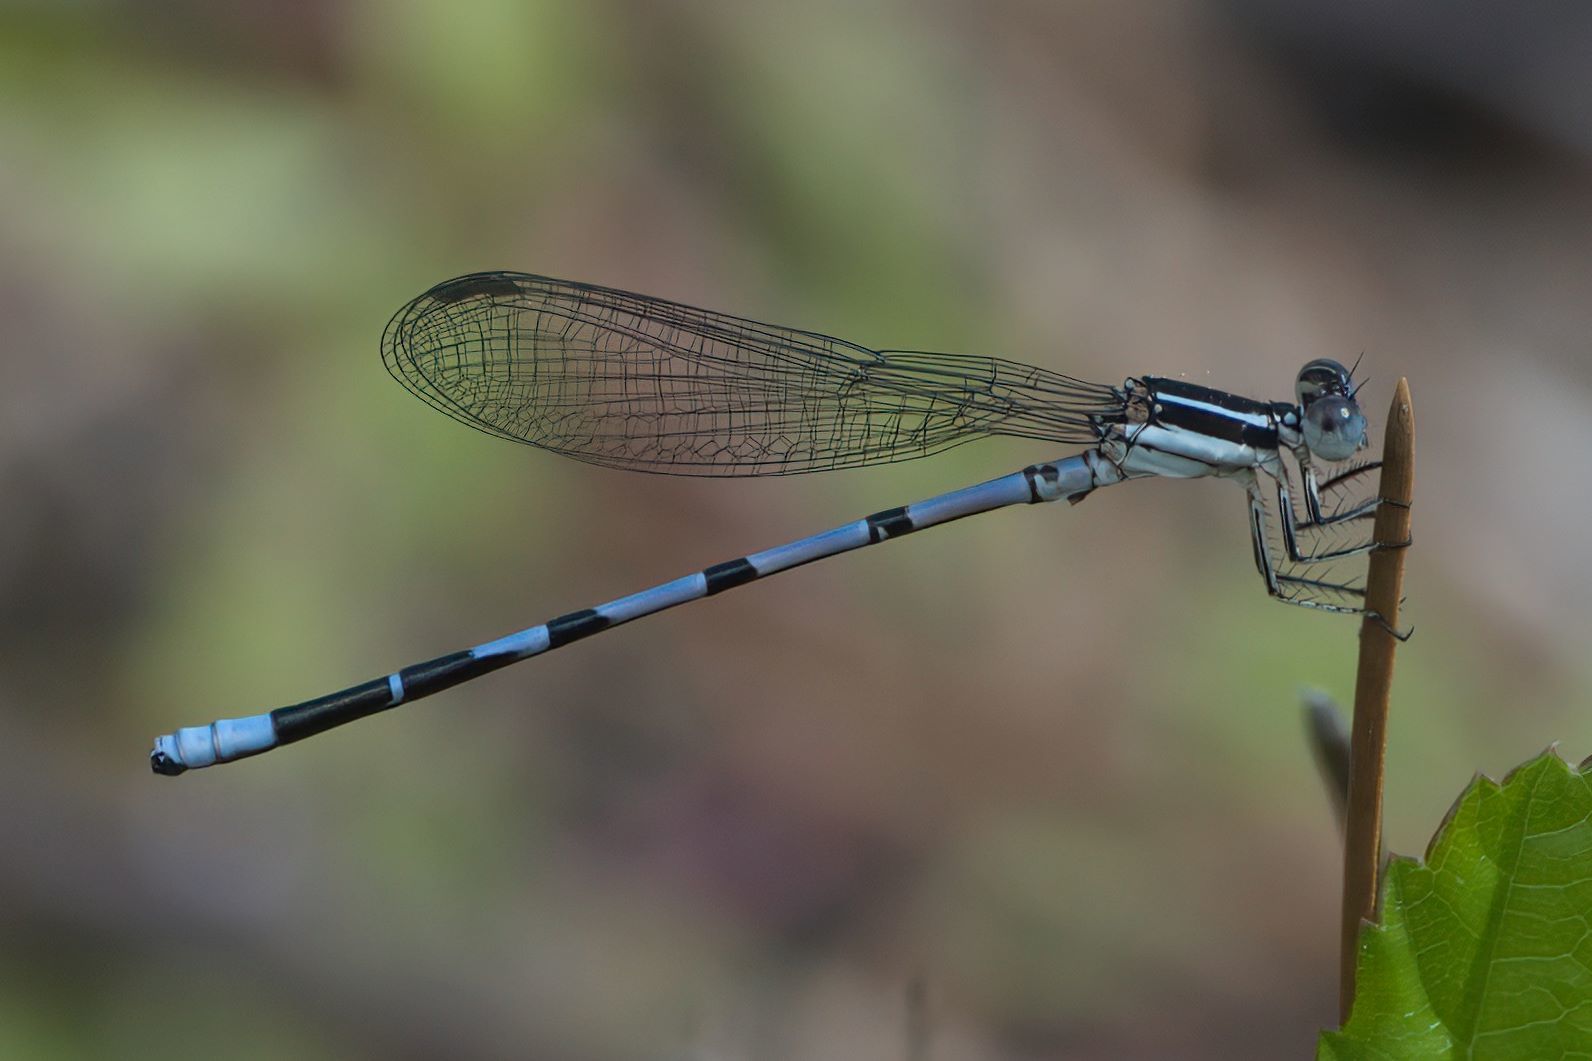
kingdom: Animalia
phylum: Arthropoda
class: Insecta
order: Odonata
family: Coenagrionidae
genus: Argia
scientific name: Argia bipunctulata
